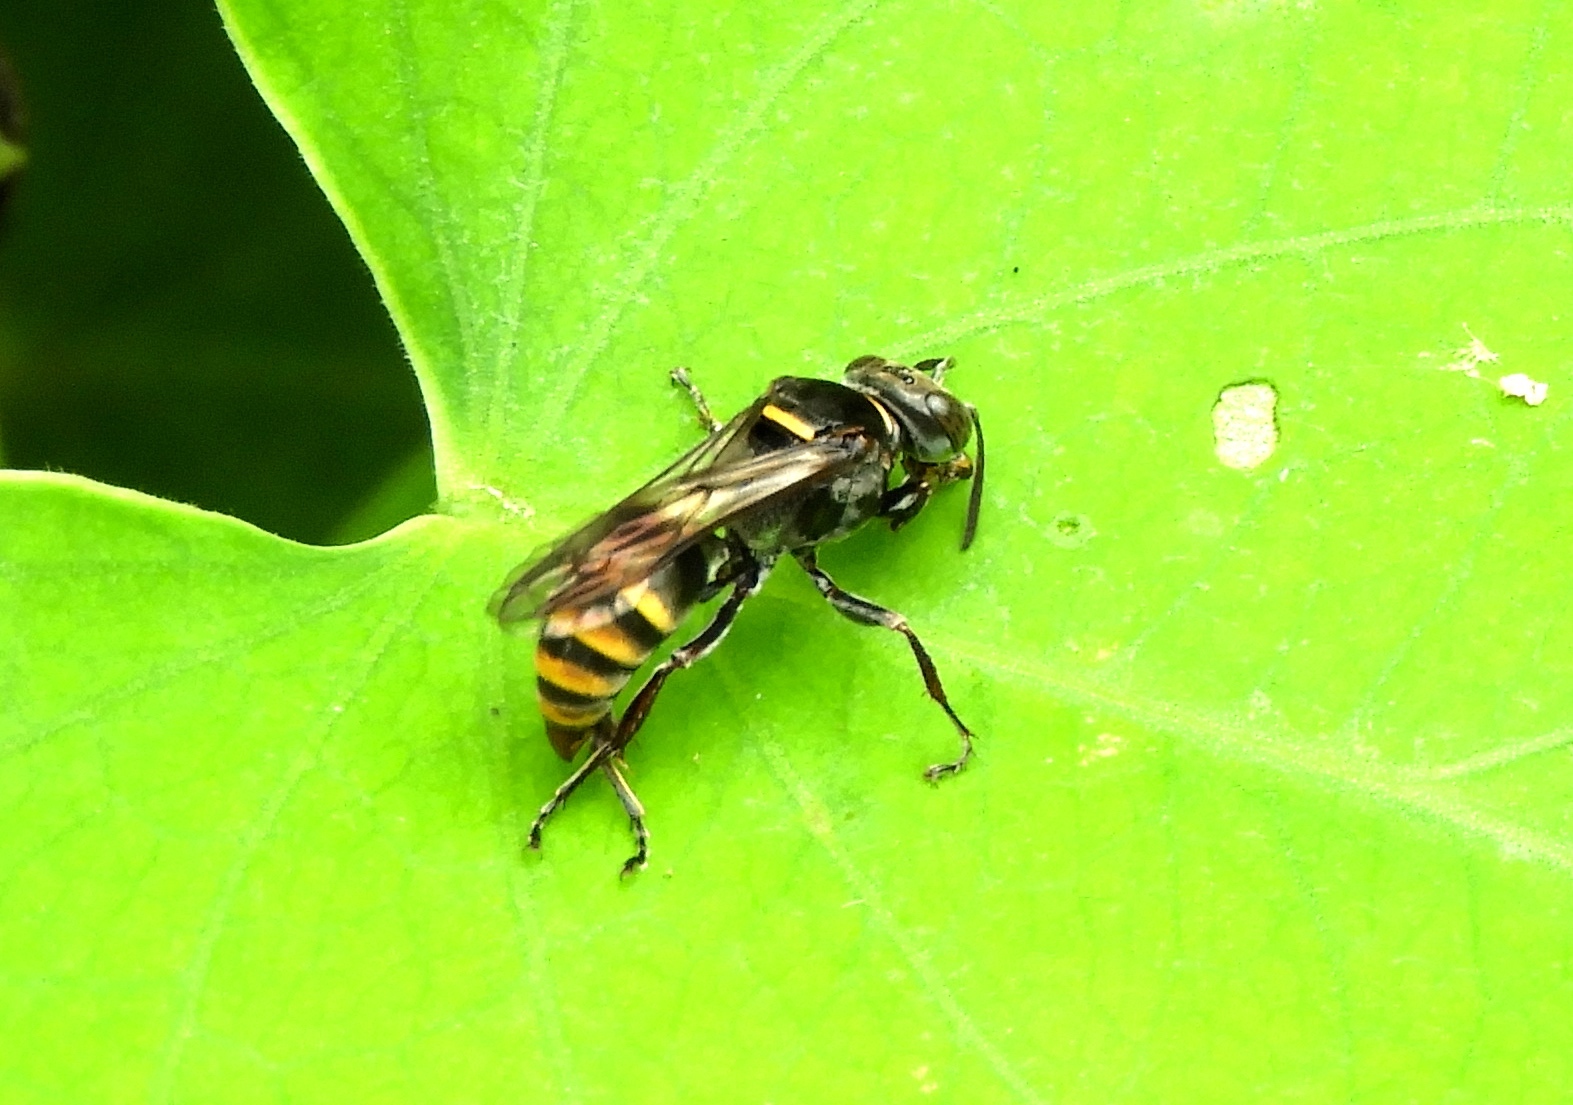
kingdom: Animalia
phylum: Arthropoda
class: Insecta
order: Hymenoptera
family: Crabronidae
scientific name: Crabronidae
